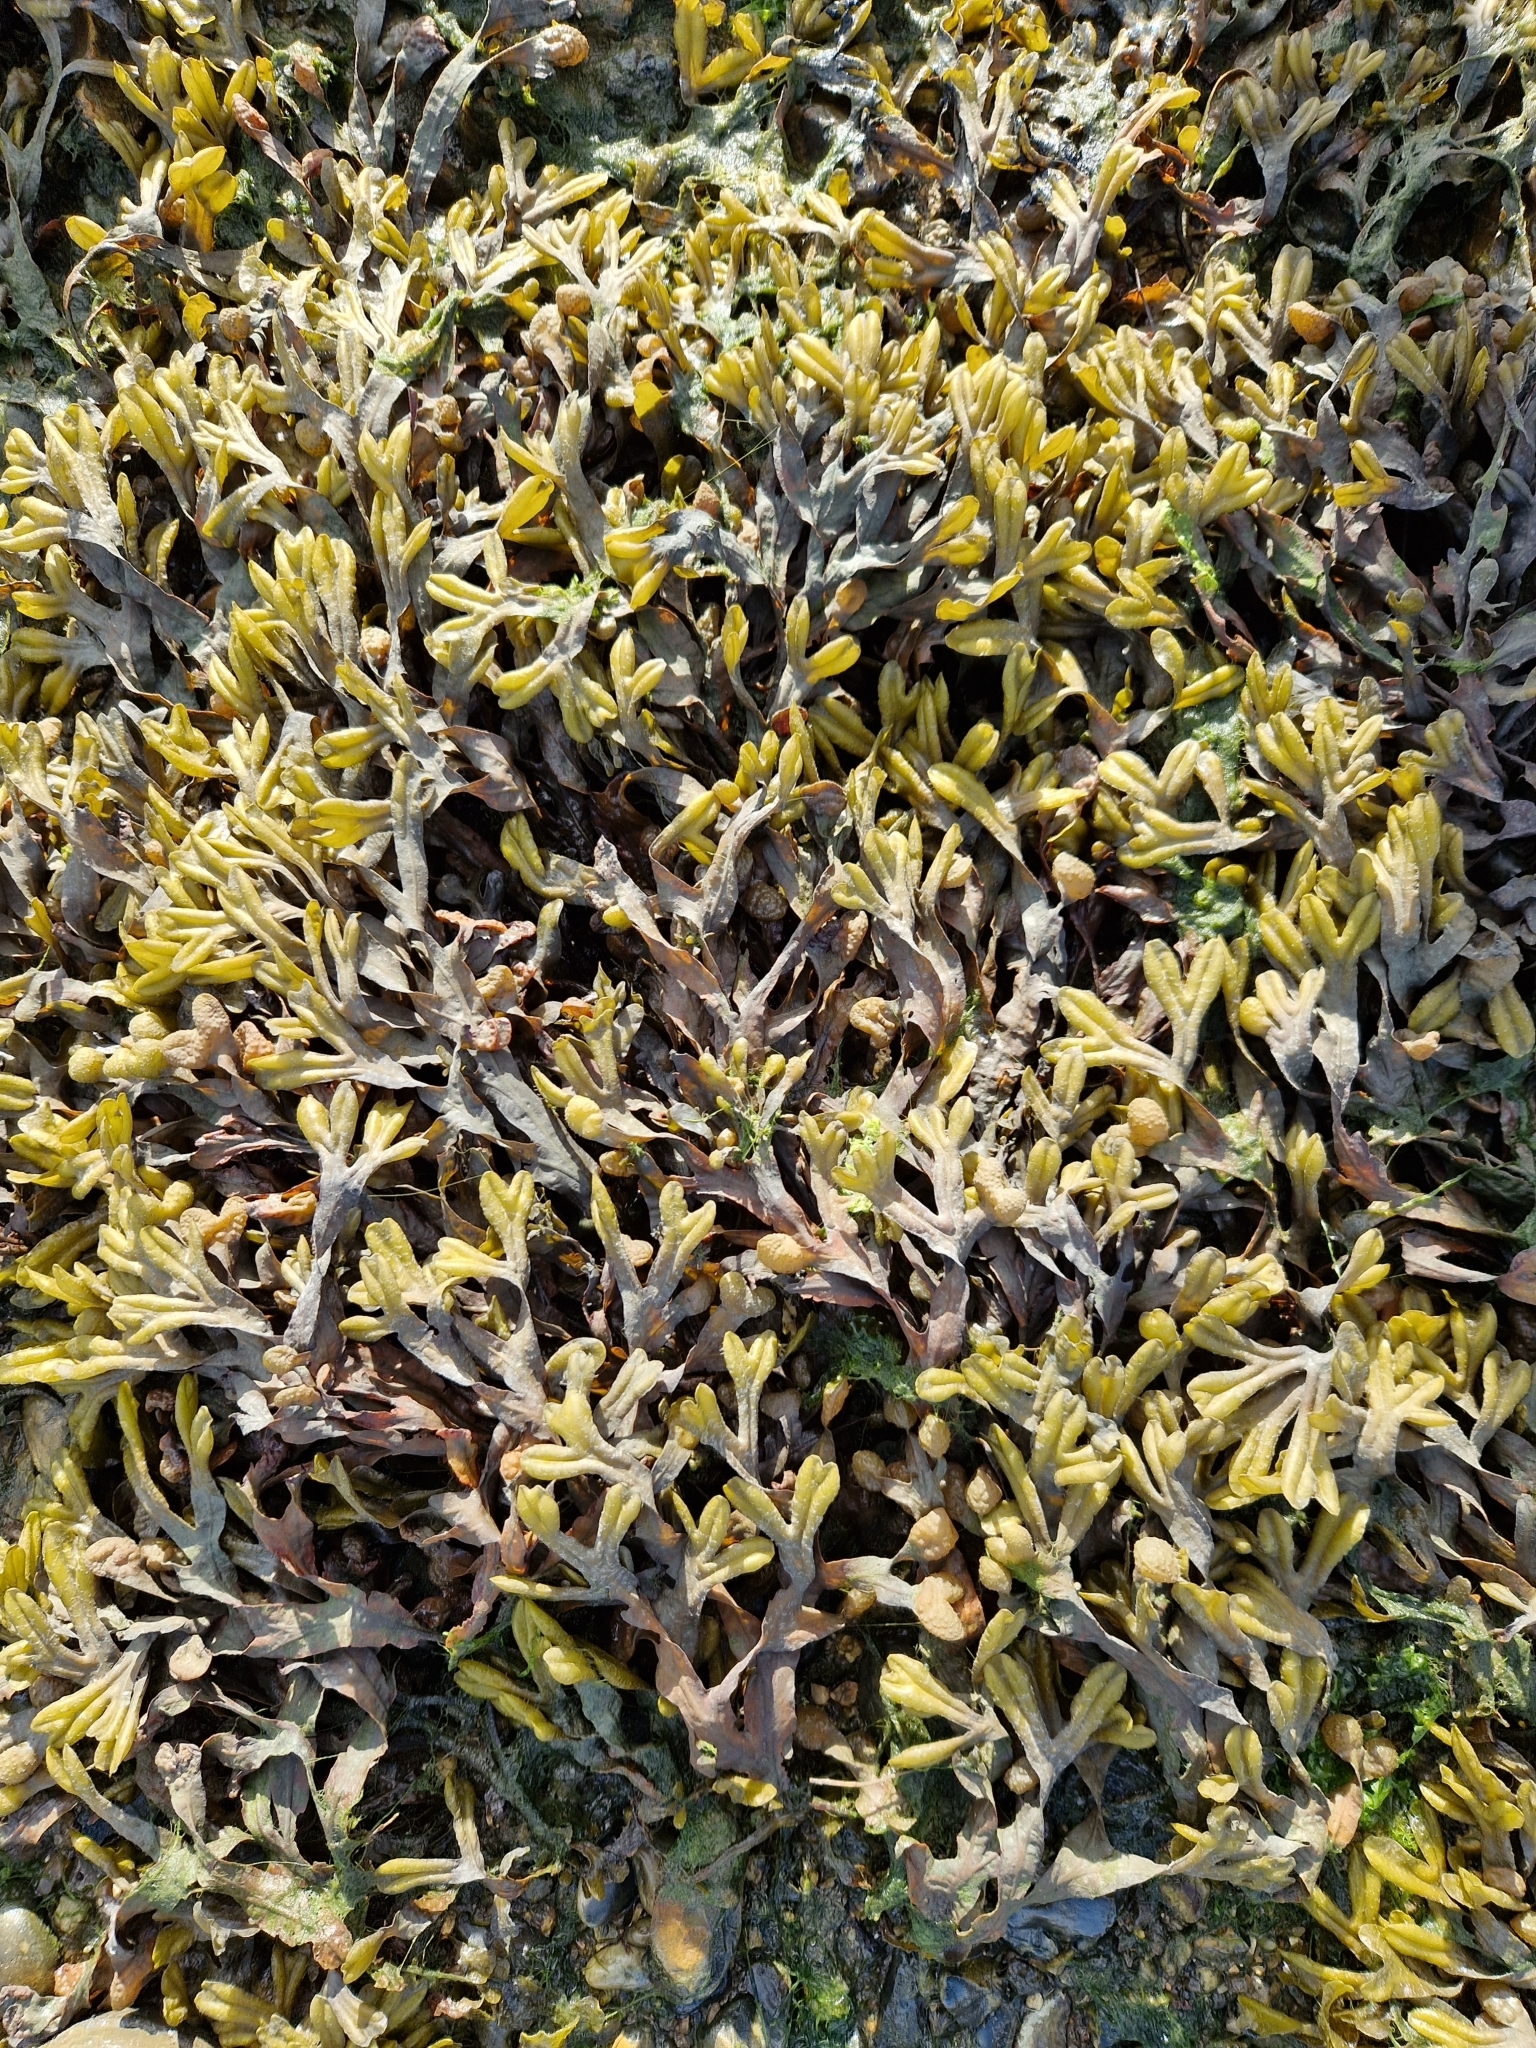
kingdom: Chromista
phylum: Ochrophyta
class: Phaeophyceae
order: Fucales
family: Fucaceae
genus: Fucus
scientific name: Fucus spiralis
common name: Spiral wrack
